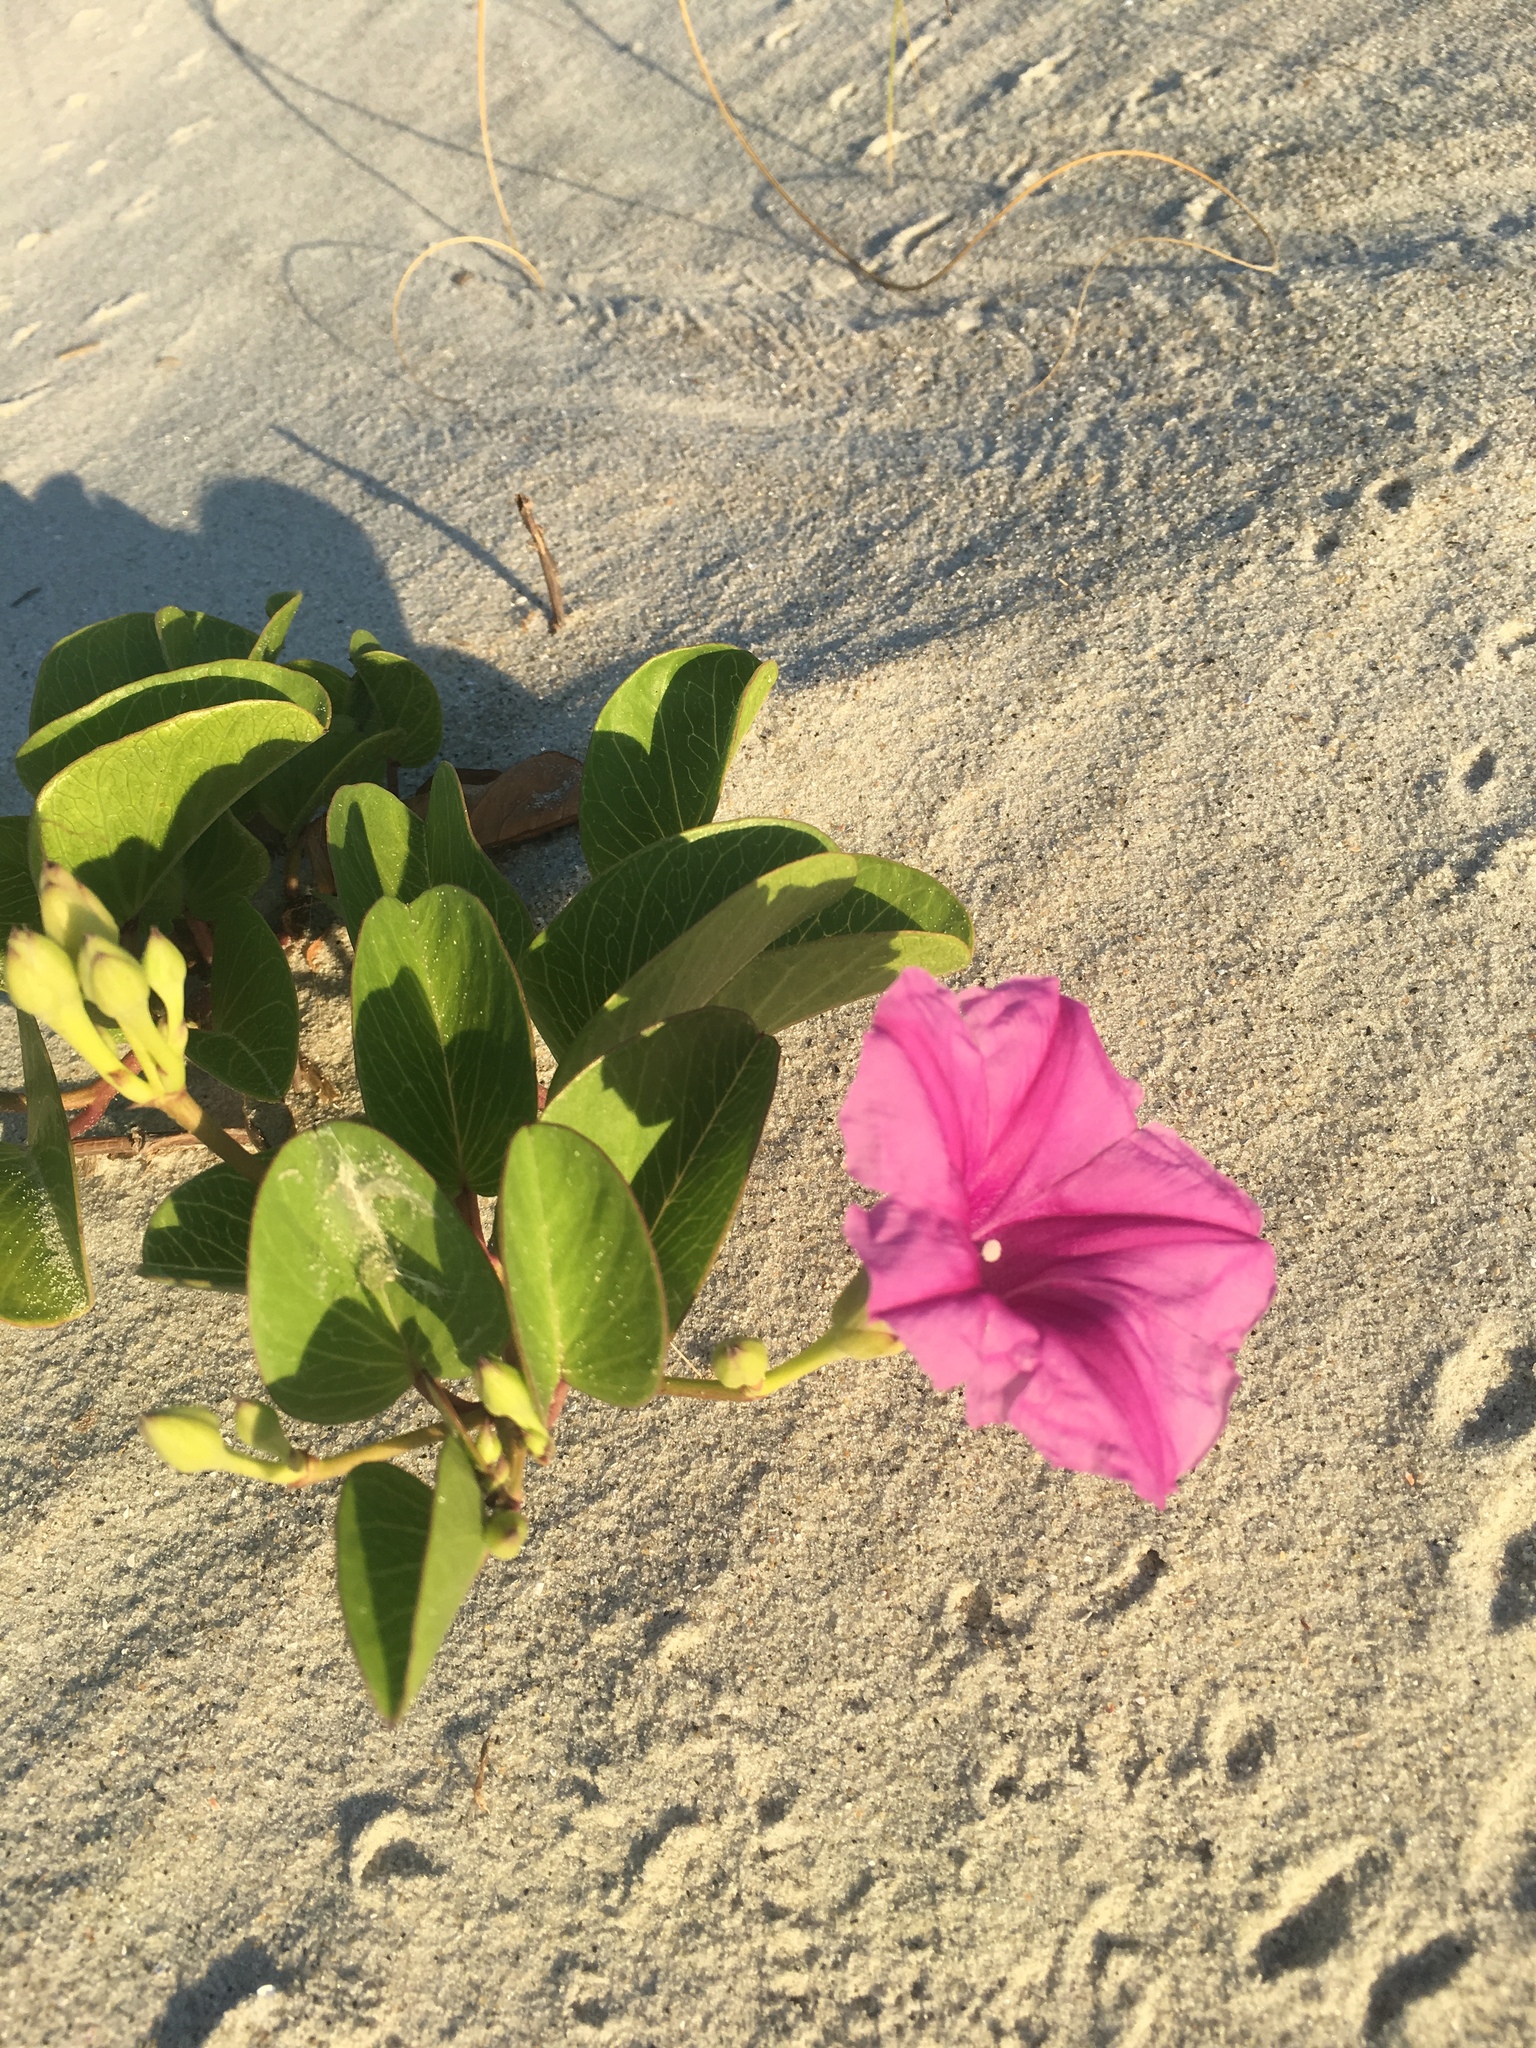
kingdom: Plantae
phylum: Tracheophyta
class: Magnoliopsida
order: Solanales
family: Convolvulaceae
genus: Ipomoea
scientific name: Ipomoea pes-caprae
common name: Beach morning glory
